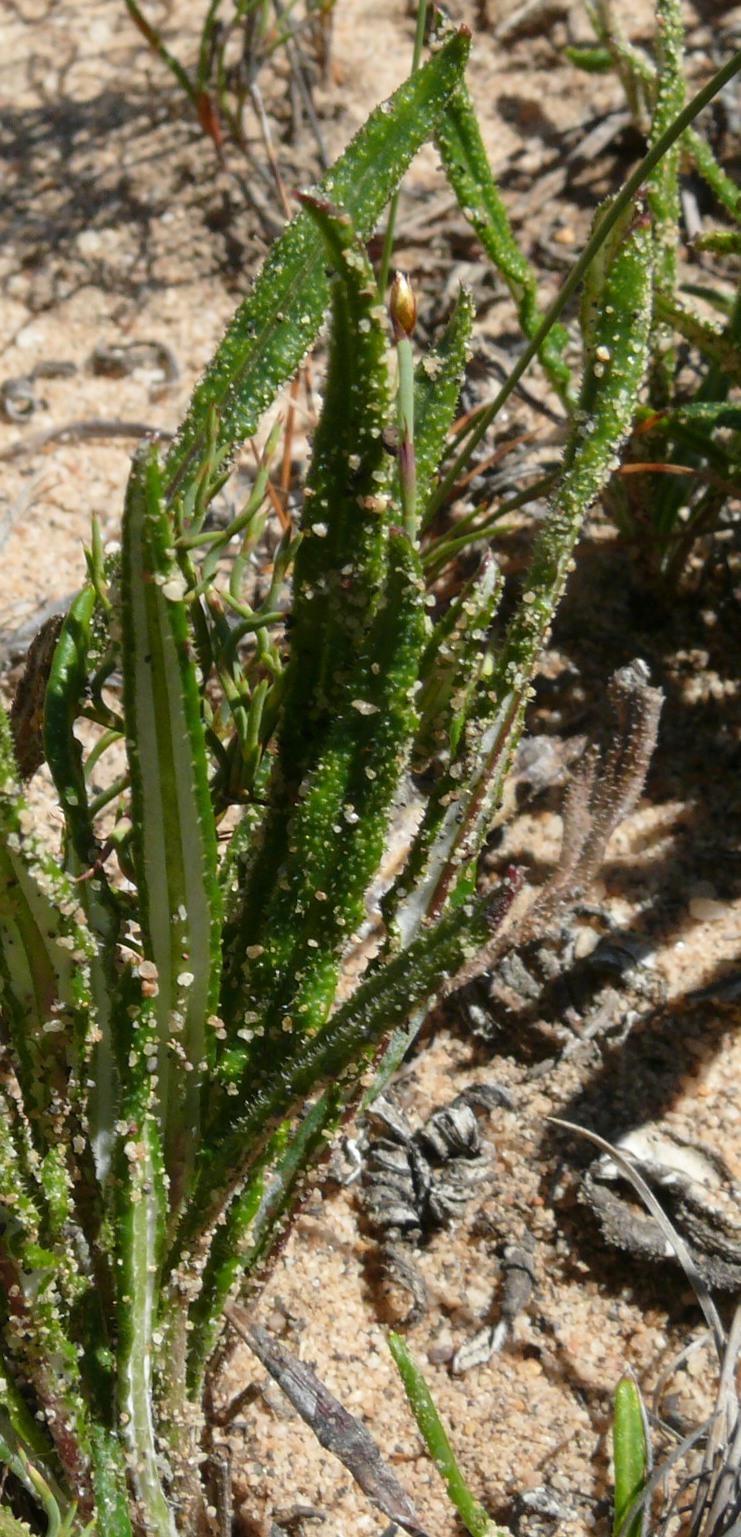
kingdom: Plantae
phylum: Tracheophyta
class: Magnoliopsida
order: Asterales
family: Asteraceae
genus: Gazania
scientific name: Gazania serrata
